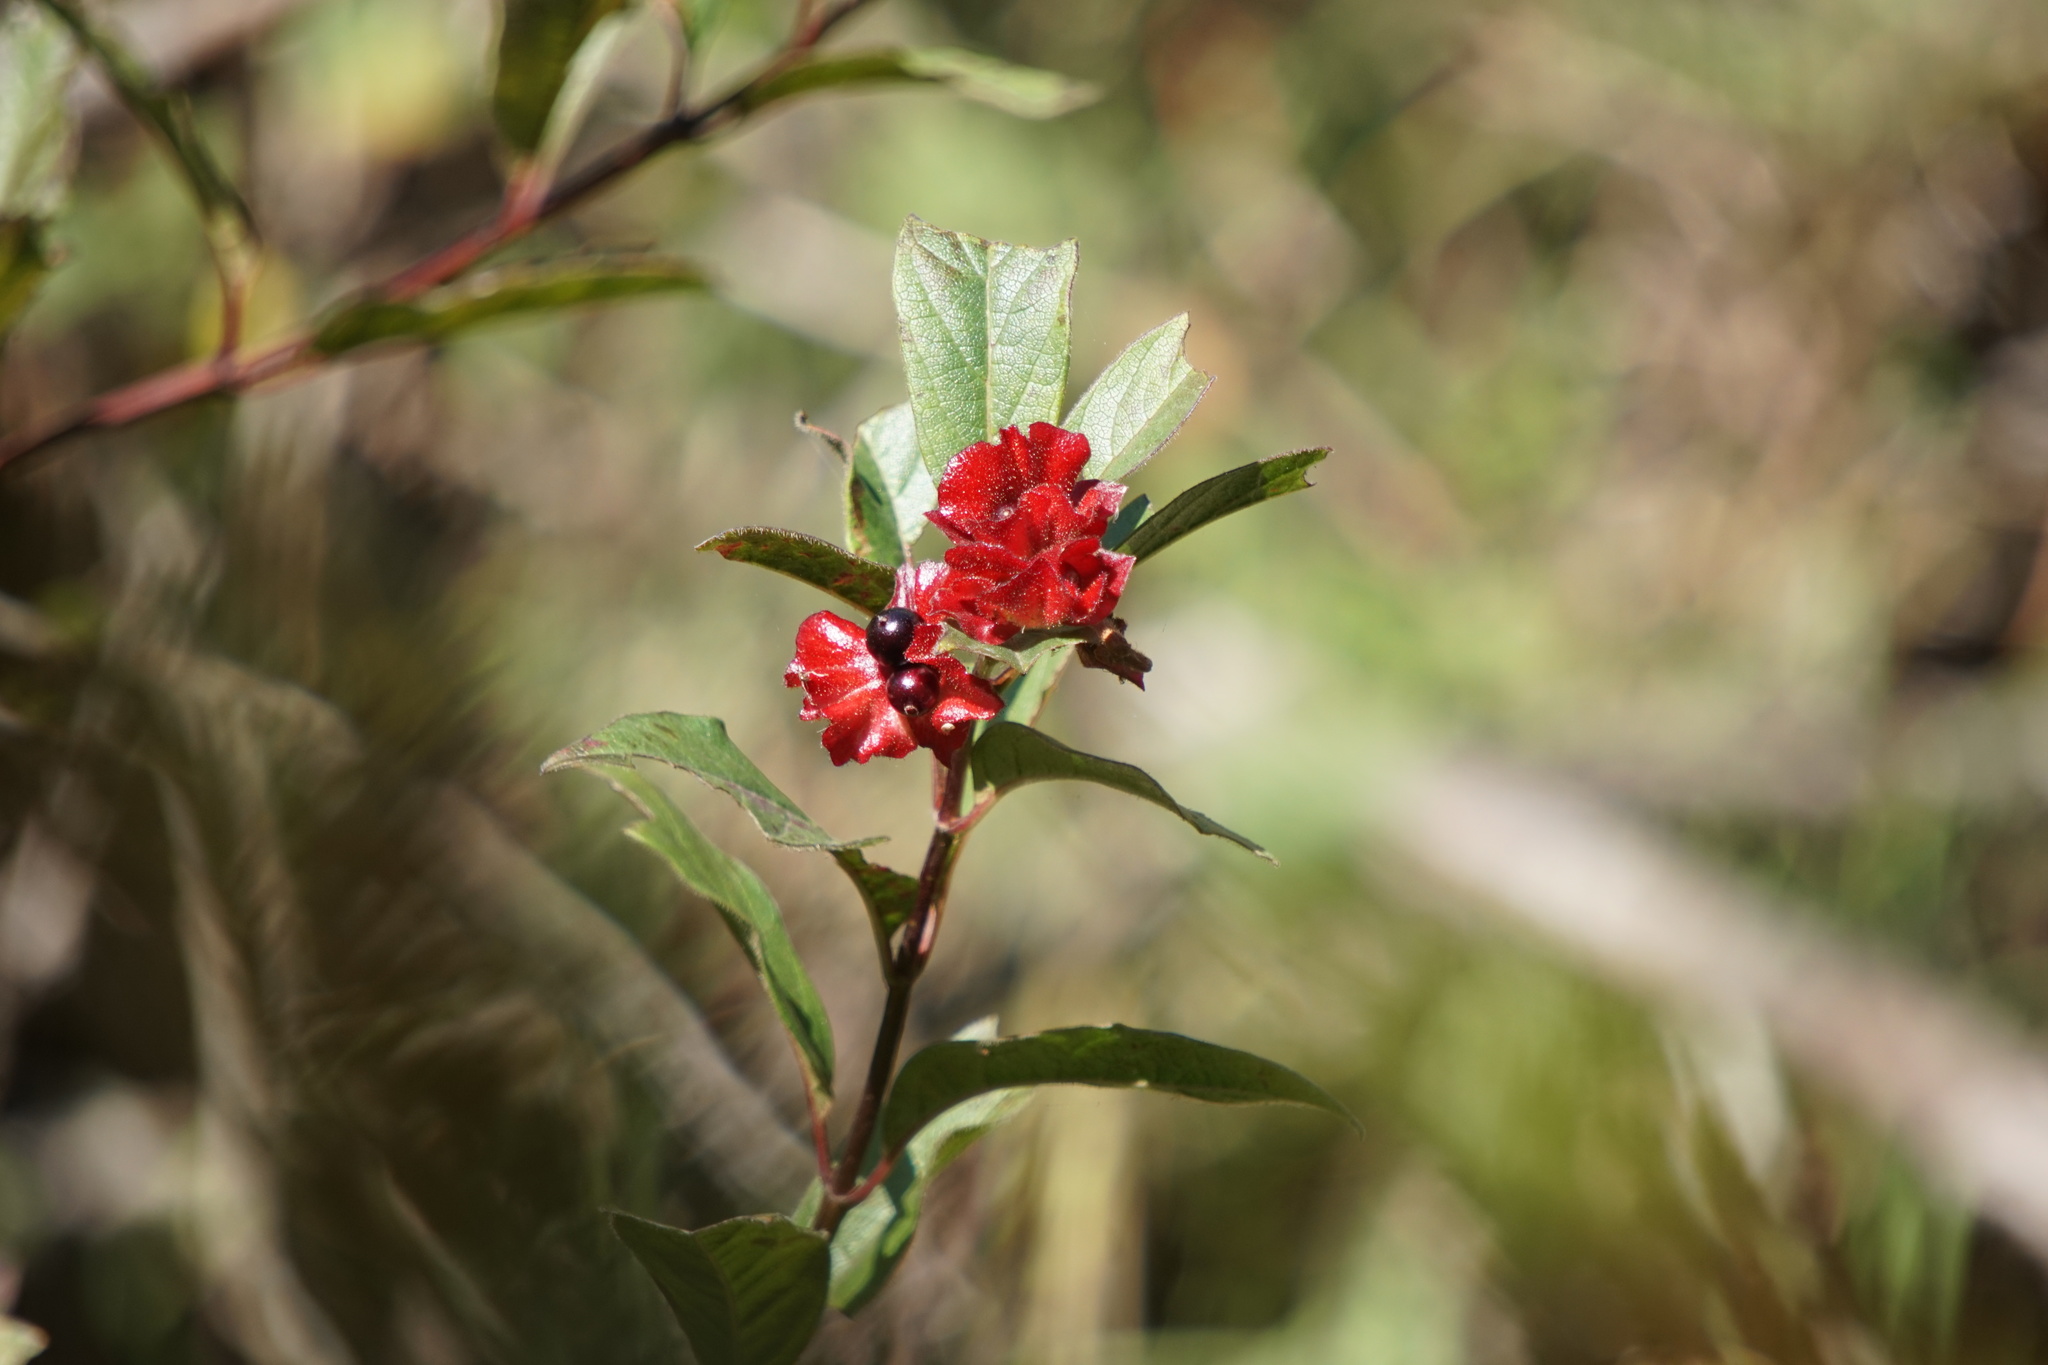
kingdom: Plantae
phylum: Tracheophyta
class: Magnoliopsida
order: Dipsacales
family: Caprifoliaceae
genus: Lonicera
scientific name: Lonicera involucrata
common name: Californian honeysuckle
